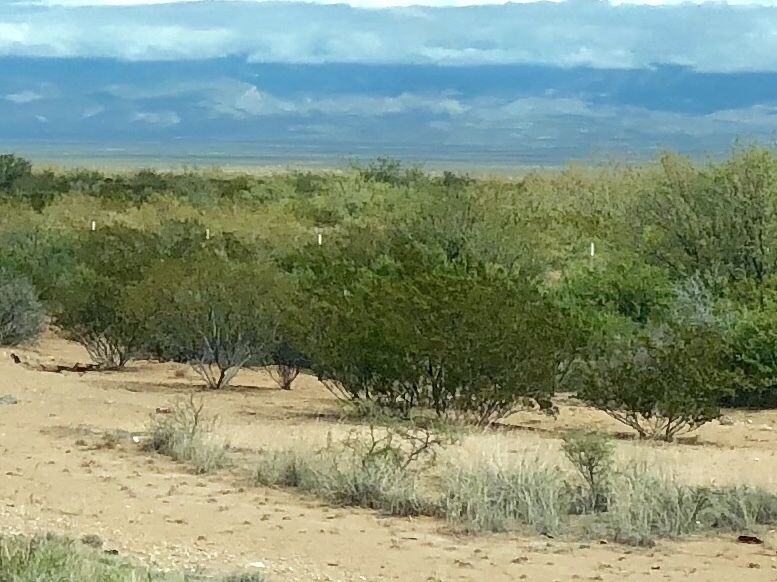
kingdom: Plantae
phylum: Tracheophyta
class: Magnoliopsida
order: Zygophyllales
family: Zygophyllaceae
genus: Larrea
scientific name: Larrea tridentata
